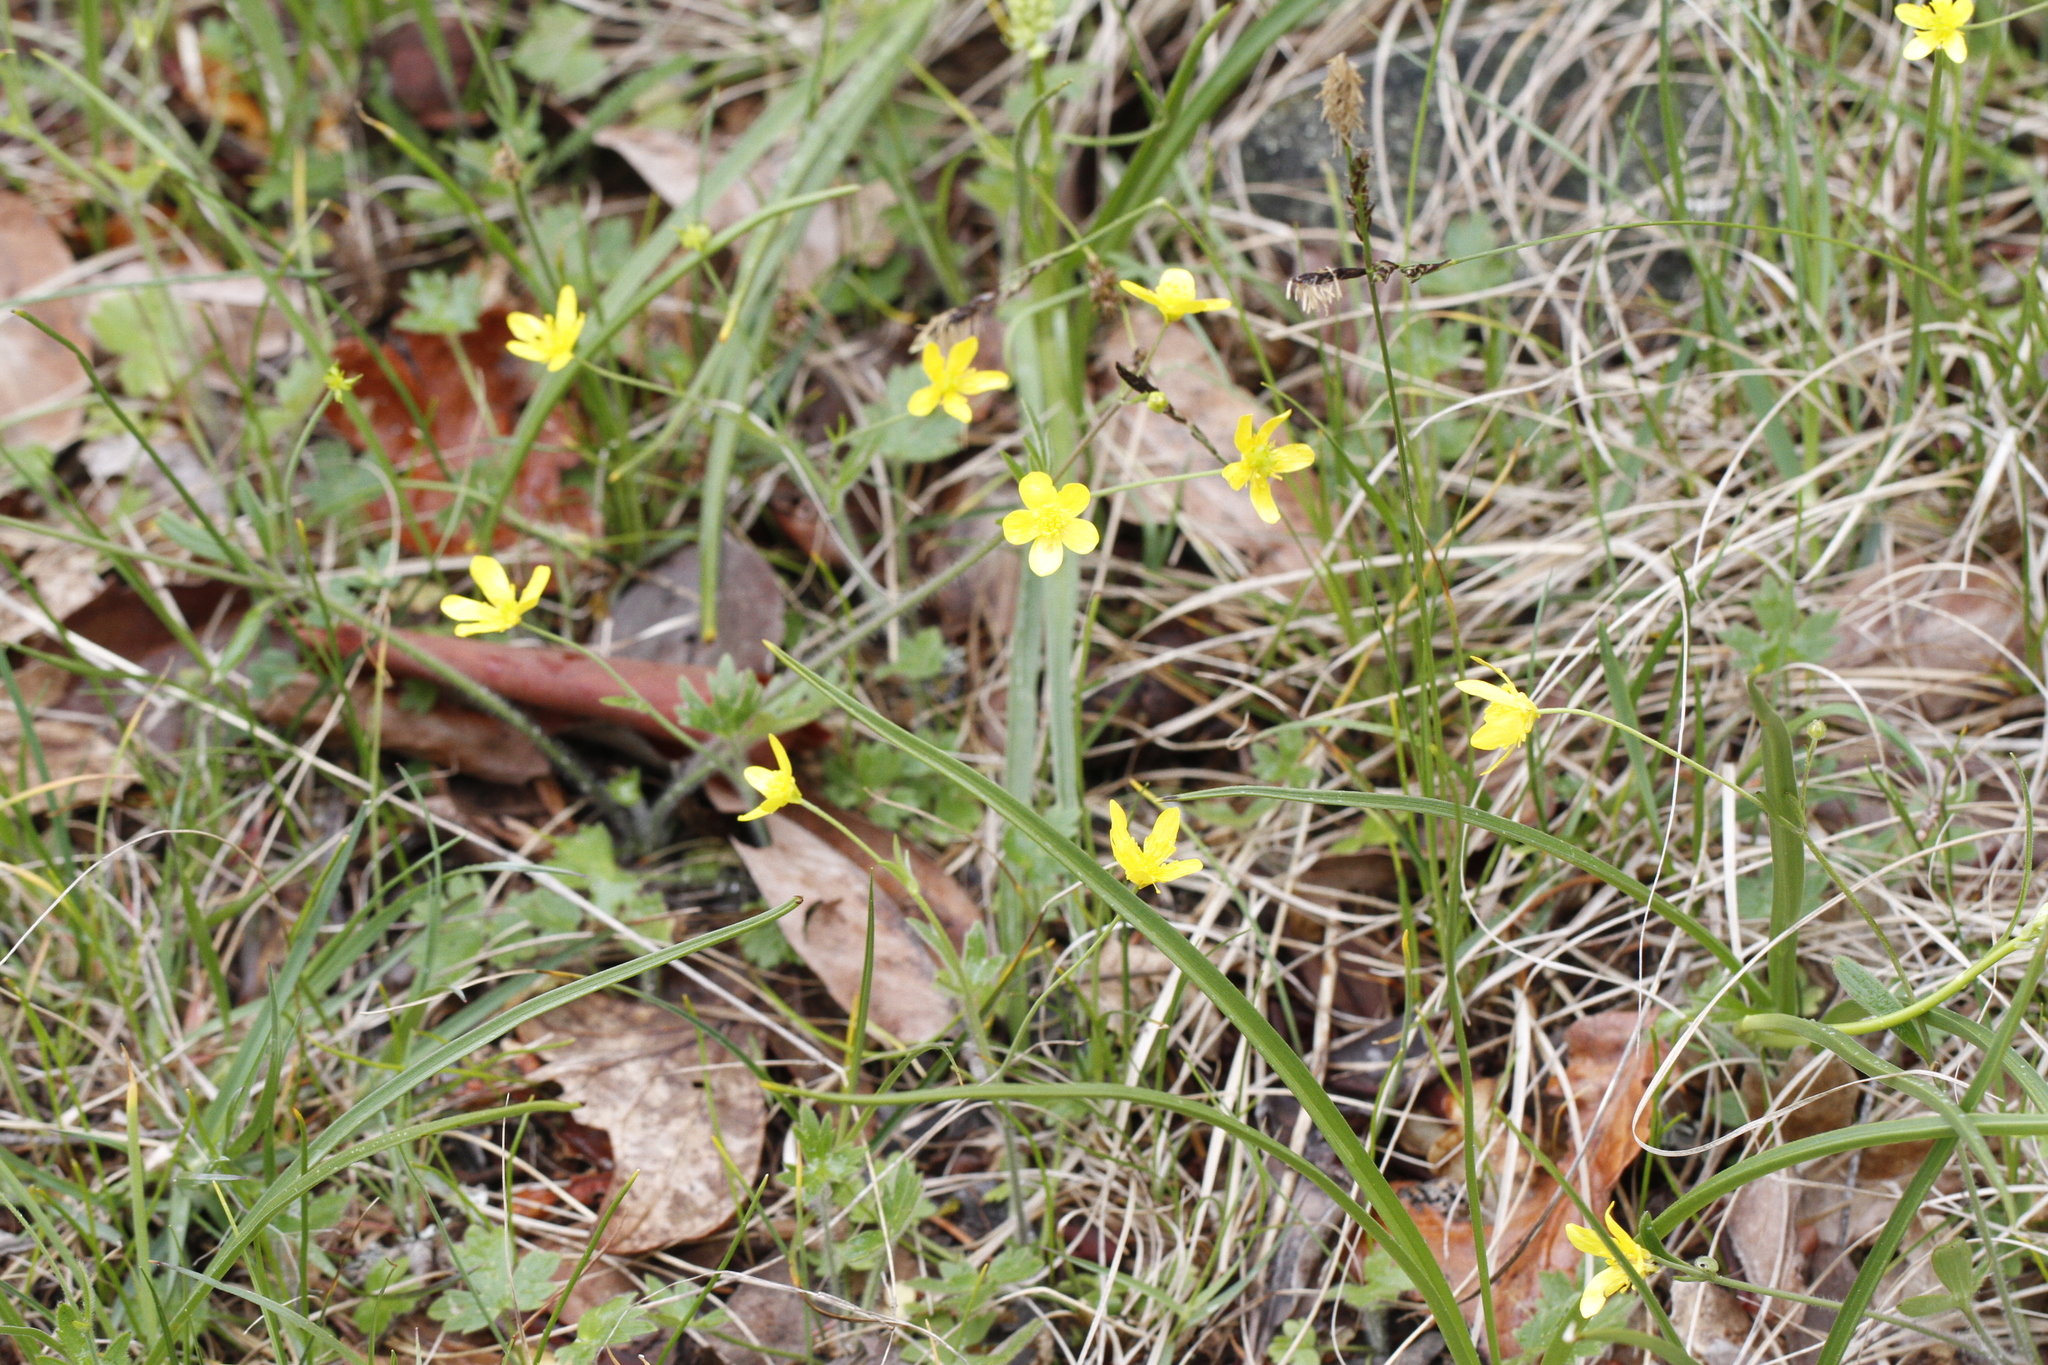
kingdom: Plantae
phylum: Tracheophyta
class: Magnoliopsida
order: Ranunculales
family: Ranunculaceae
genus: Ranunculus
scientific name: Ranunculus occidentalis
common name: Western buttercup
